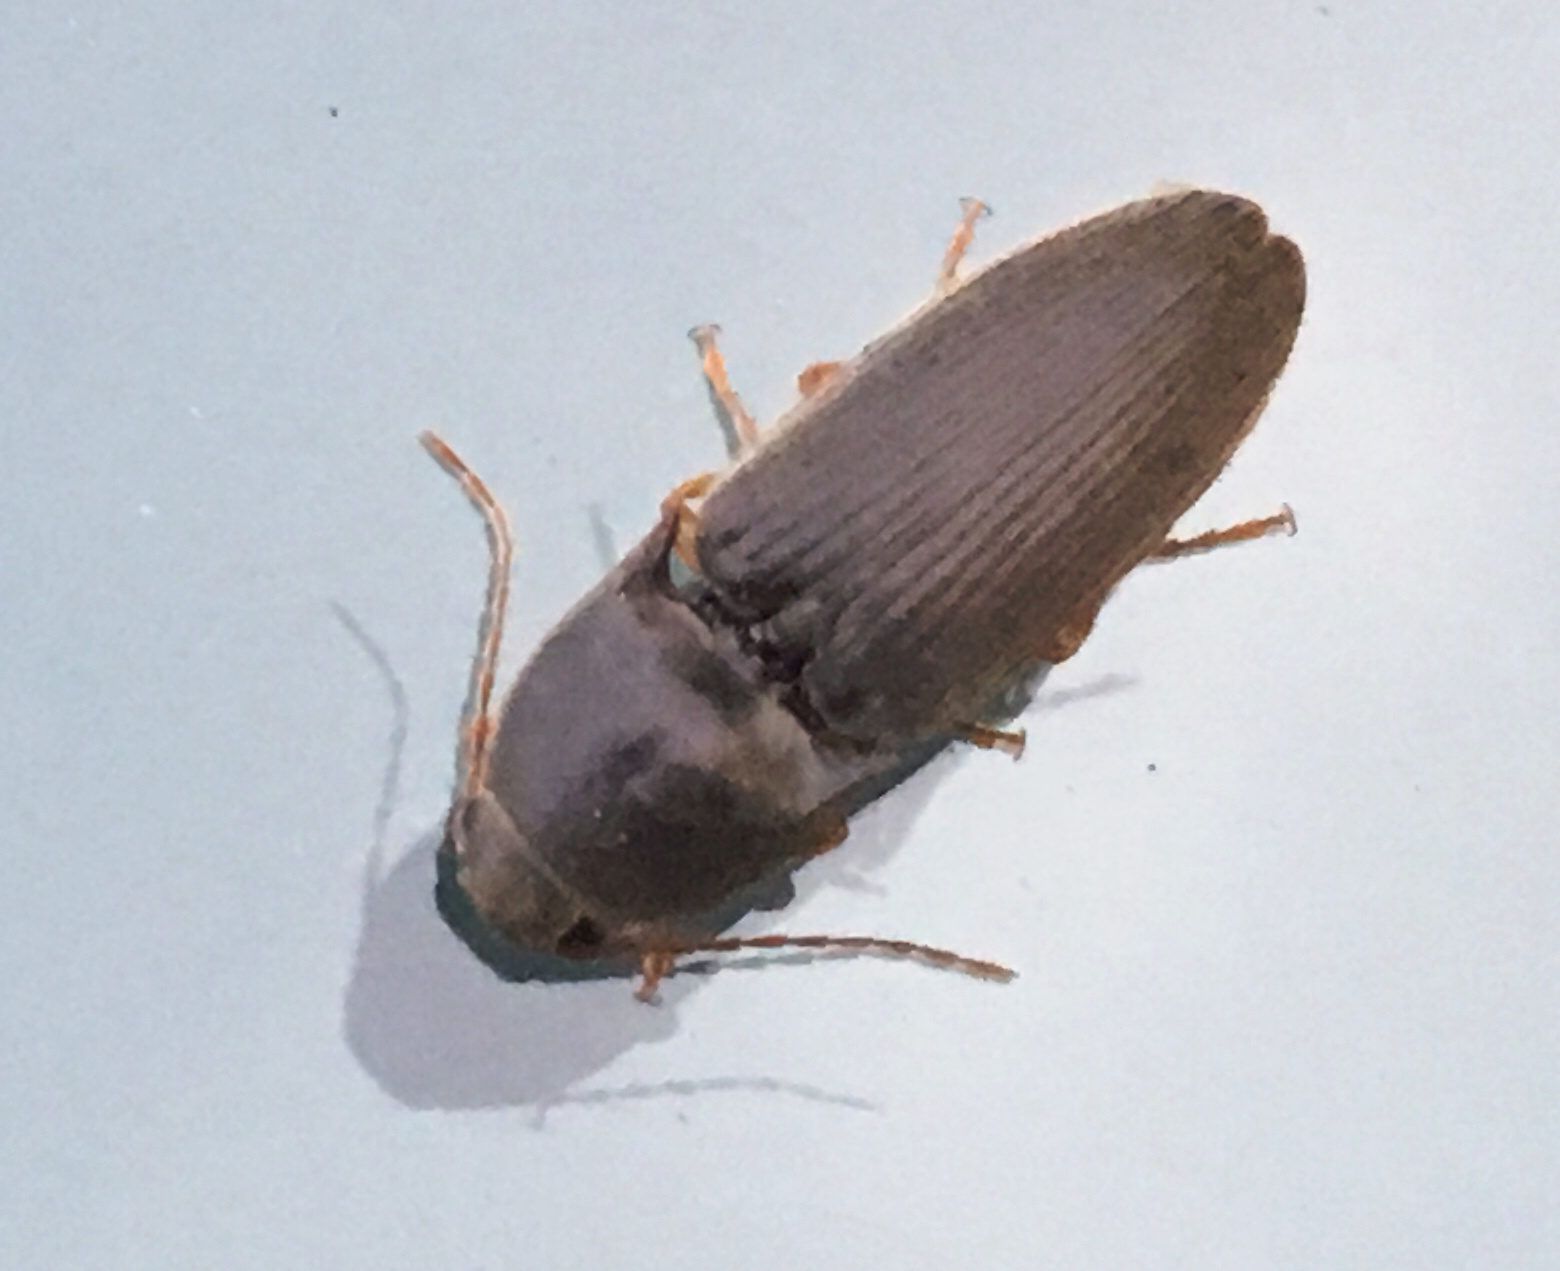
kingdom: Animalia
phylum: Arthropoda
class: Insecta
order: Coleoptera
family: Elateridae
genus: Conoderus
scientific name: Conoderus exsul
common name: Click beetle
